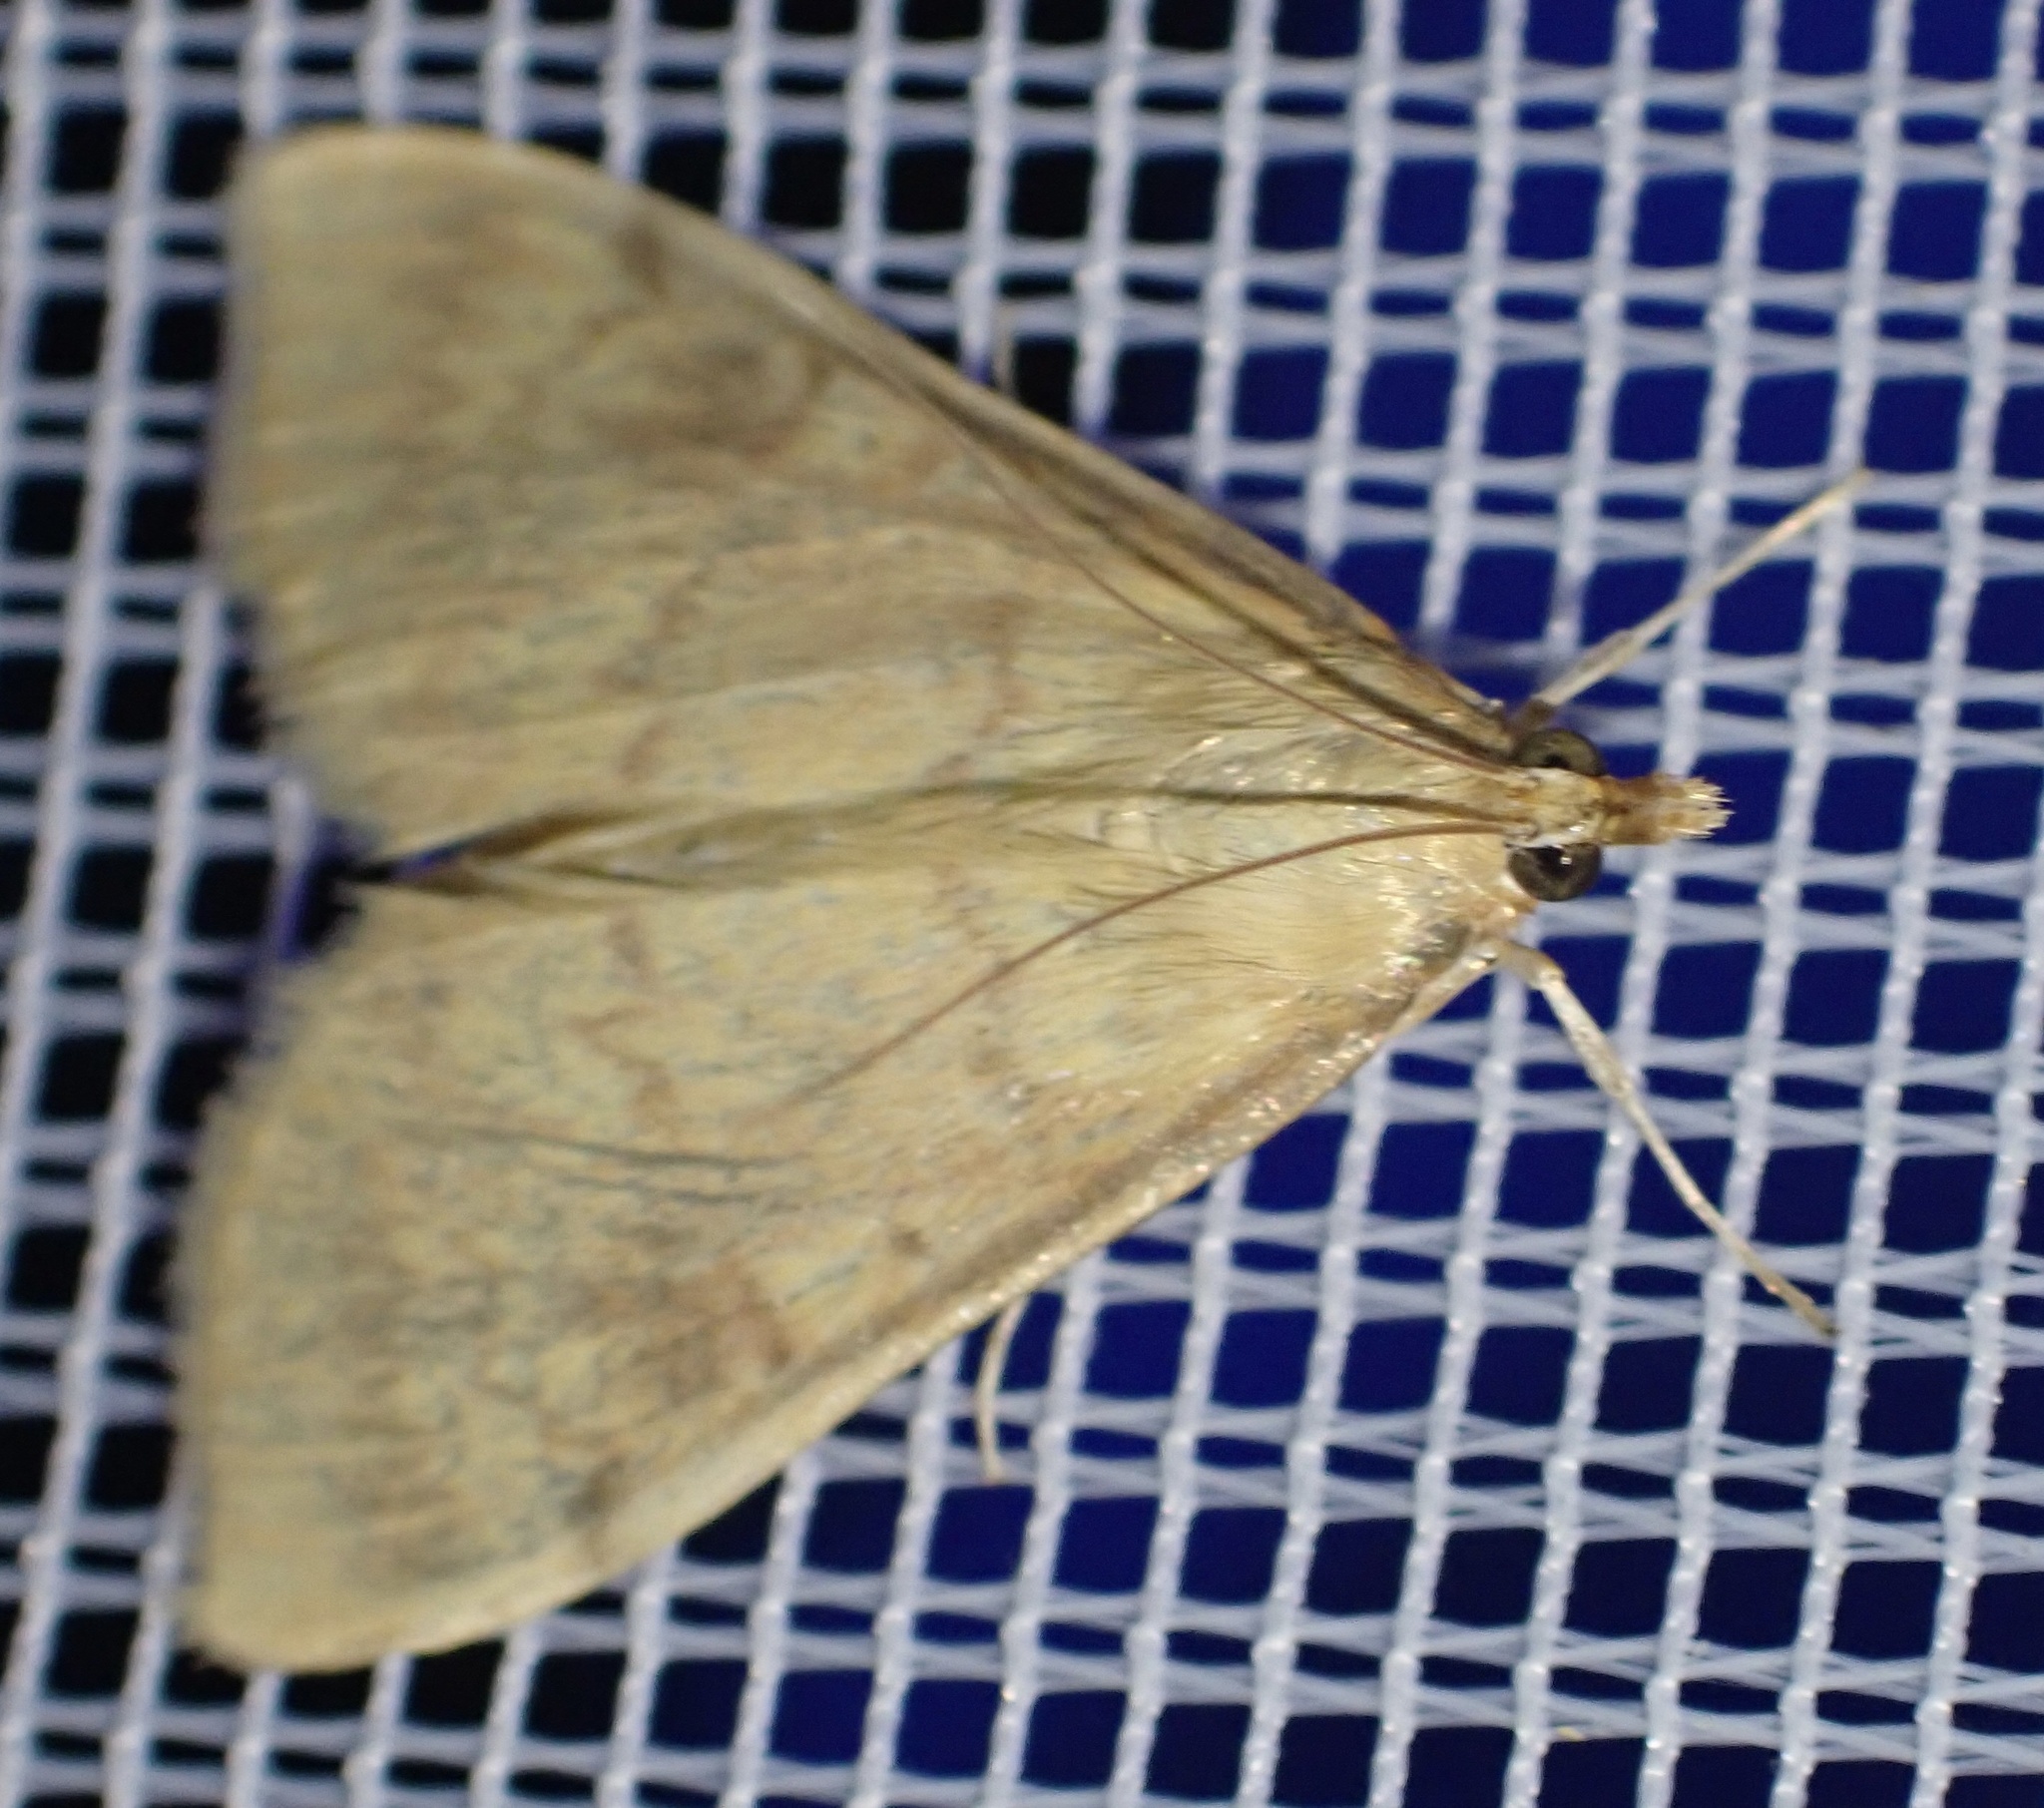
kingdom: Animalia
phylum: Arthropoda
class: Insecta
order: Lepidoptera
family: Crambidae
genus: Ostrinia
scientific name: Ostrinia nubilalis
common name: European corn borer
